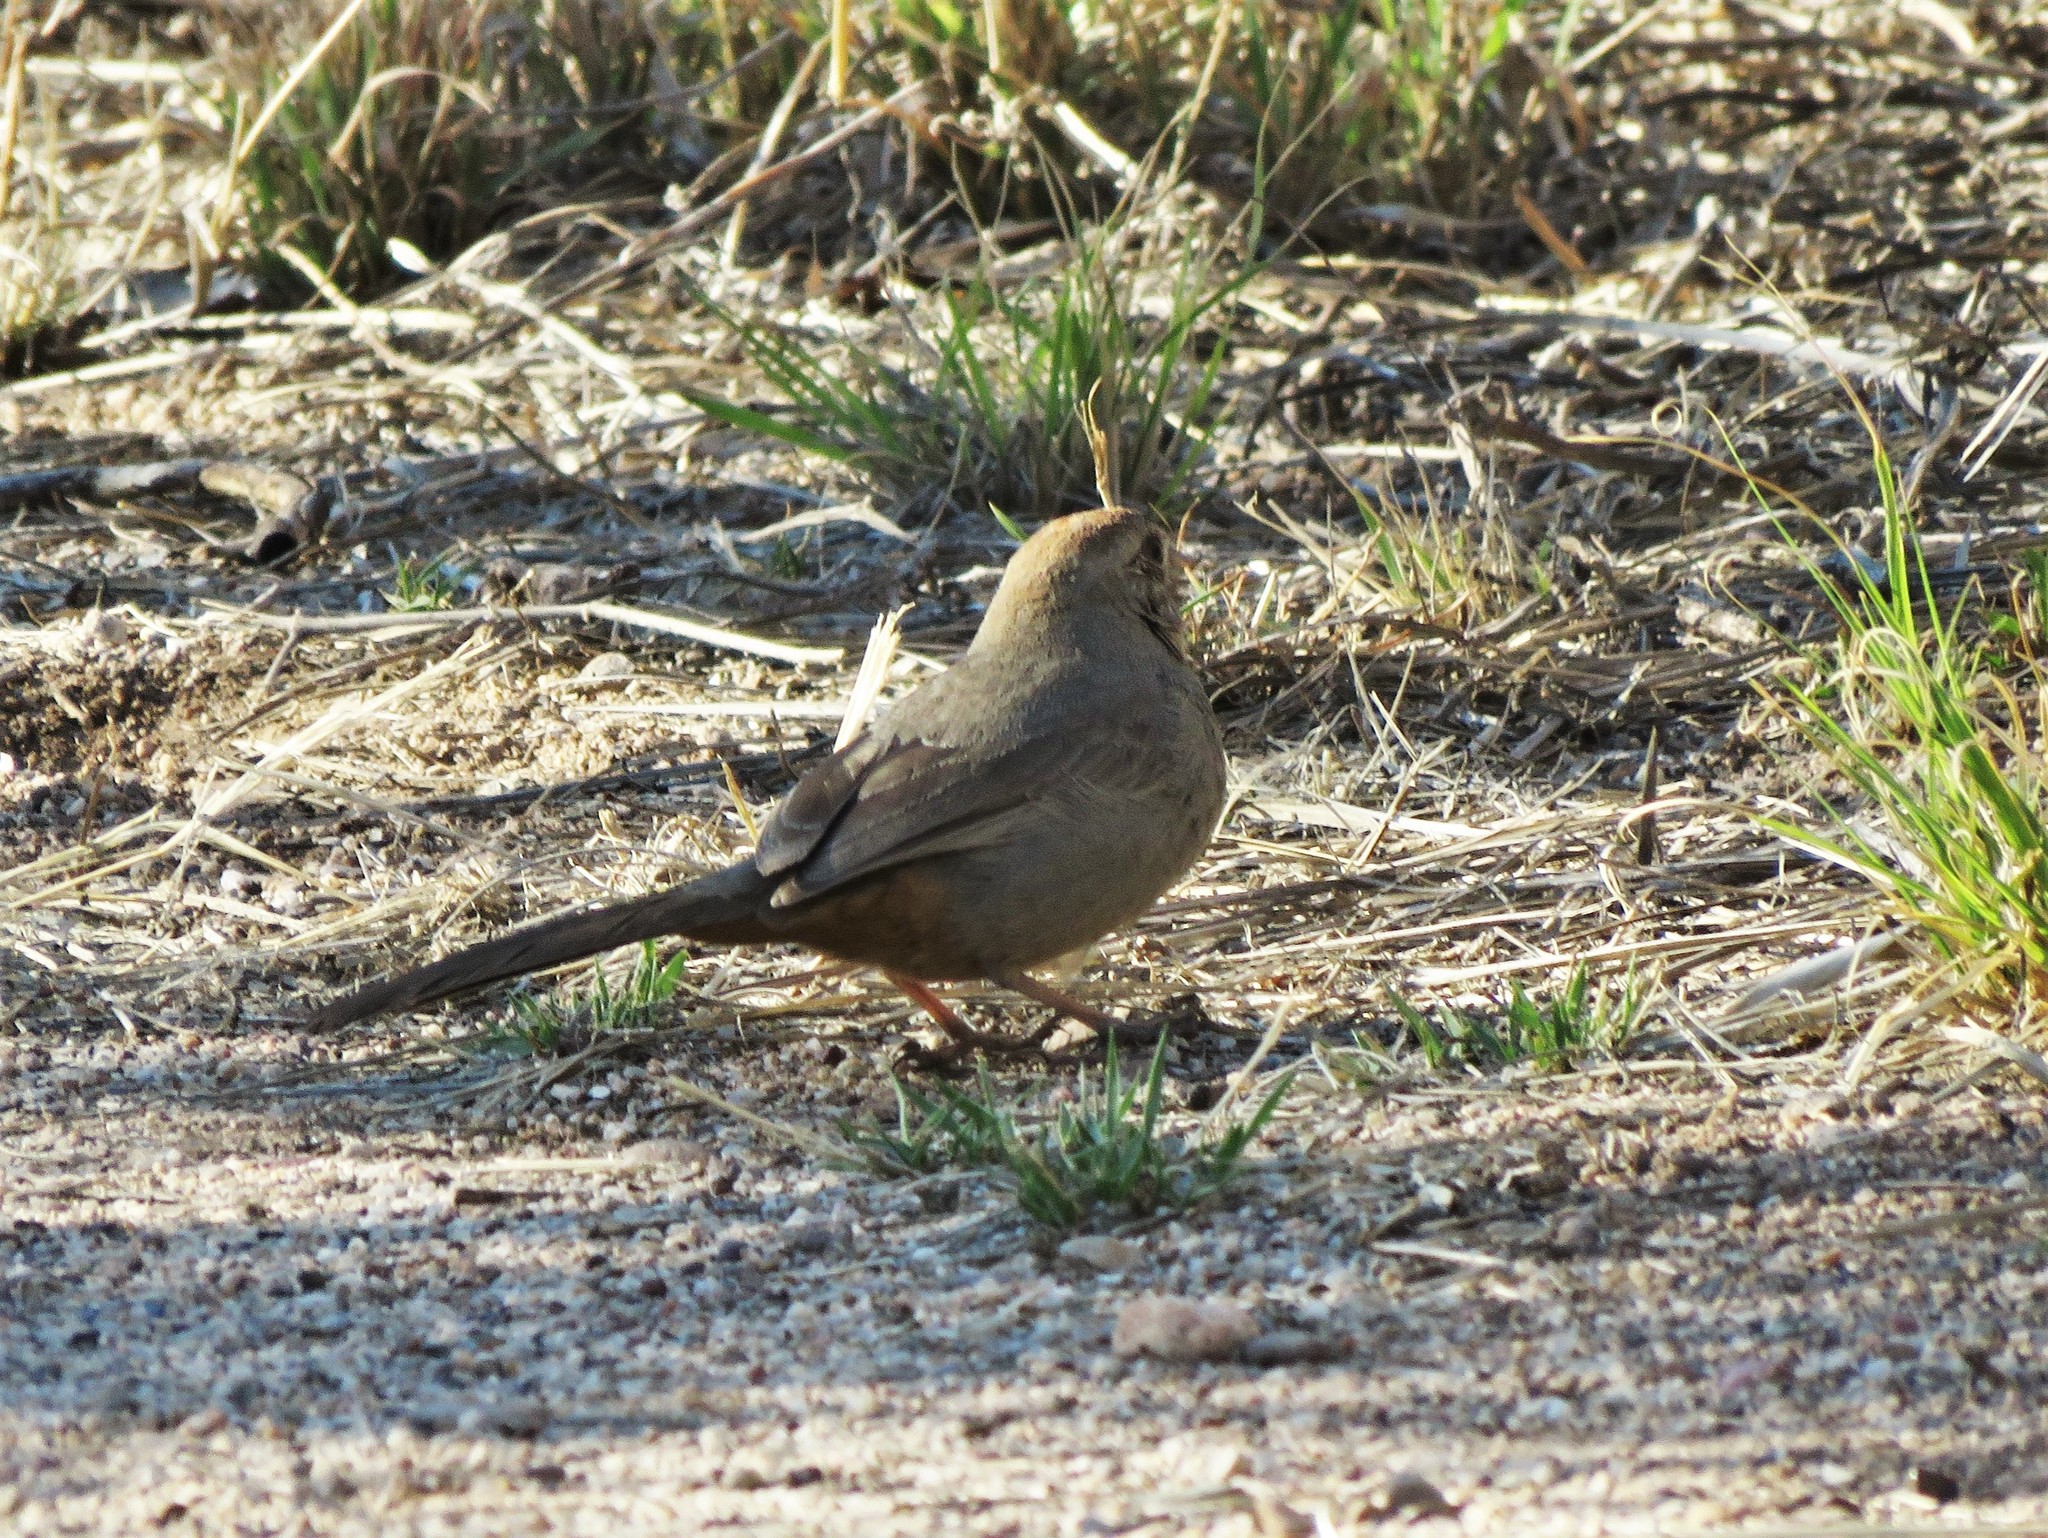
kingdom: Animalia
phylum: Chordata
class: Aves
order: Passeriformes
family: Passerellidae
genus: Melozone
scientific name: Melozone fusca
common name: Canyon towhee
